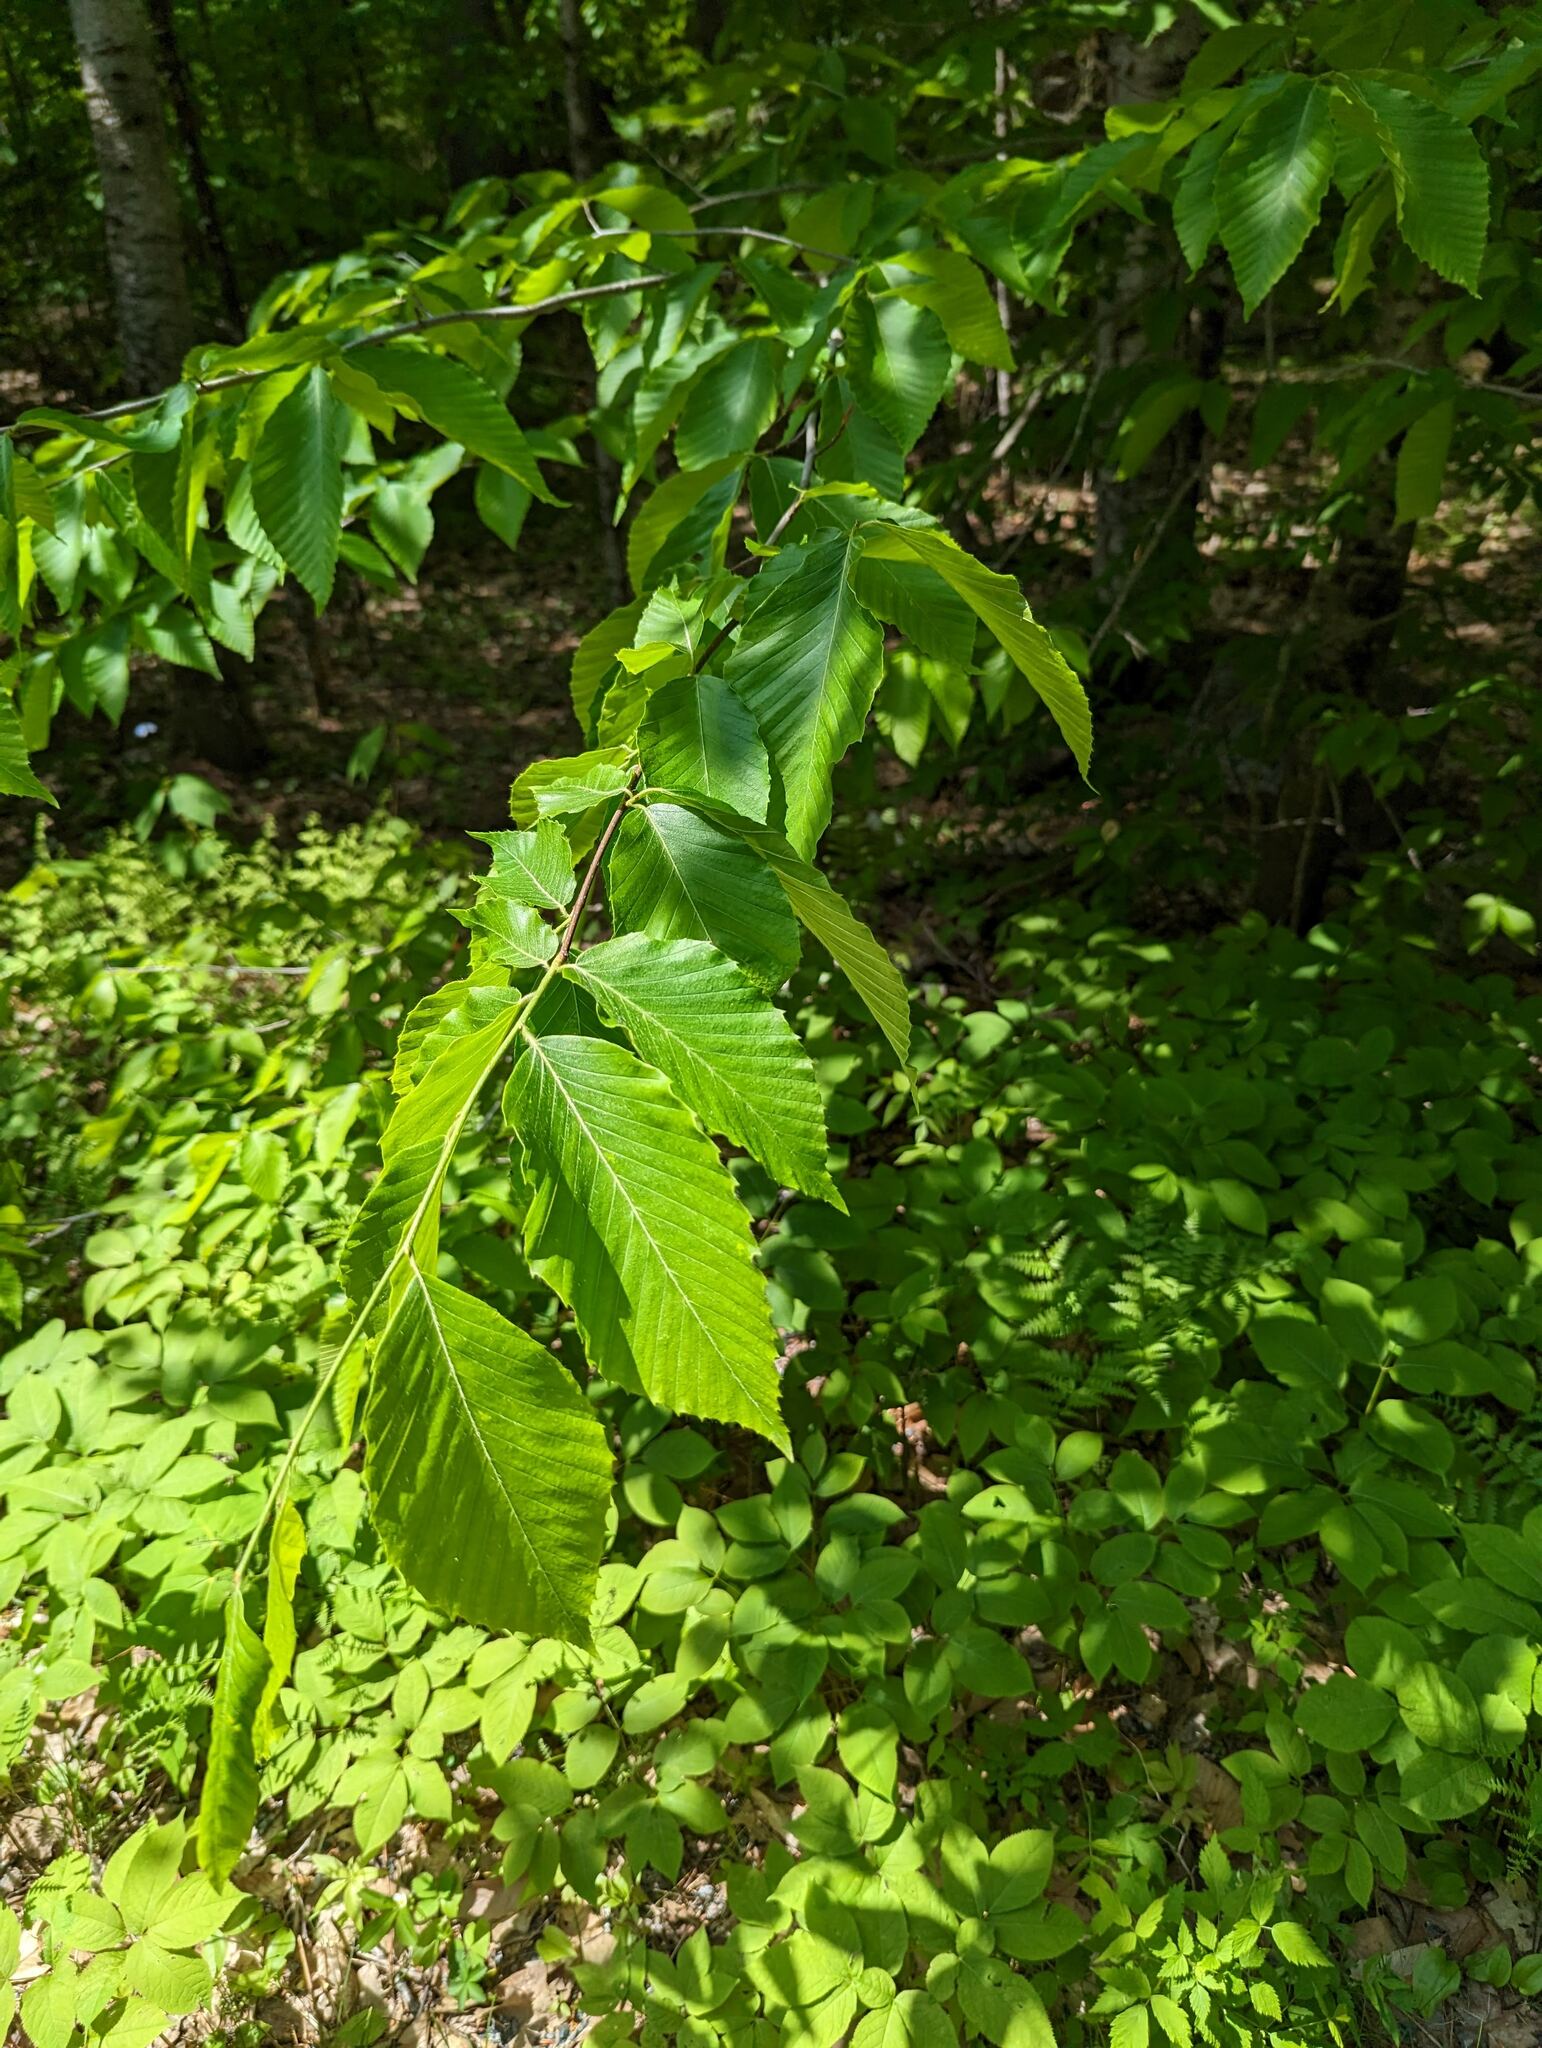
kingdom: Plantae
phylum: Tracheophyta
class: Magnoliopsida
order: Fagales
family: Fagaceae
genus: Fagus
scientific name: Fagus grandifolia
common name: American beech
